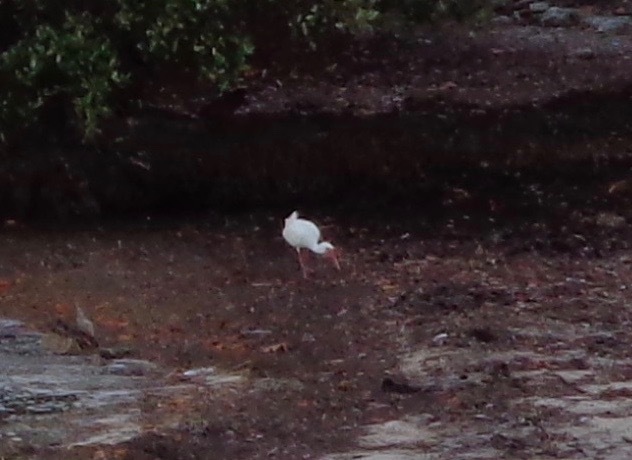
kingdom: Animalia
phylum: Chordata
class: Aves
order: Pelecaniformes
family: Threskiornithidae
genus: Eudocimus
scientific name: Eudocimus albus
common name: White ibis
